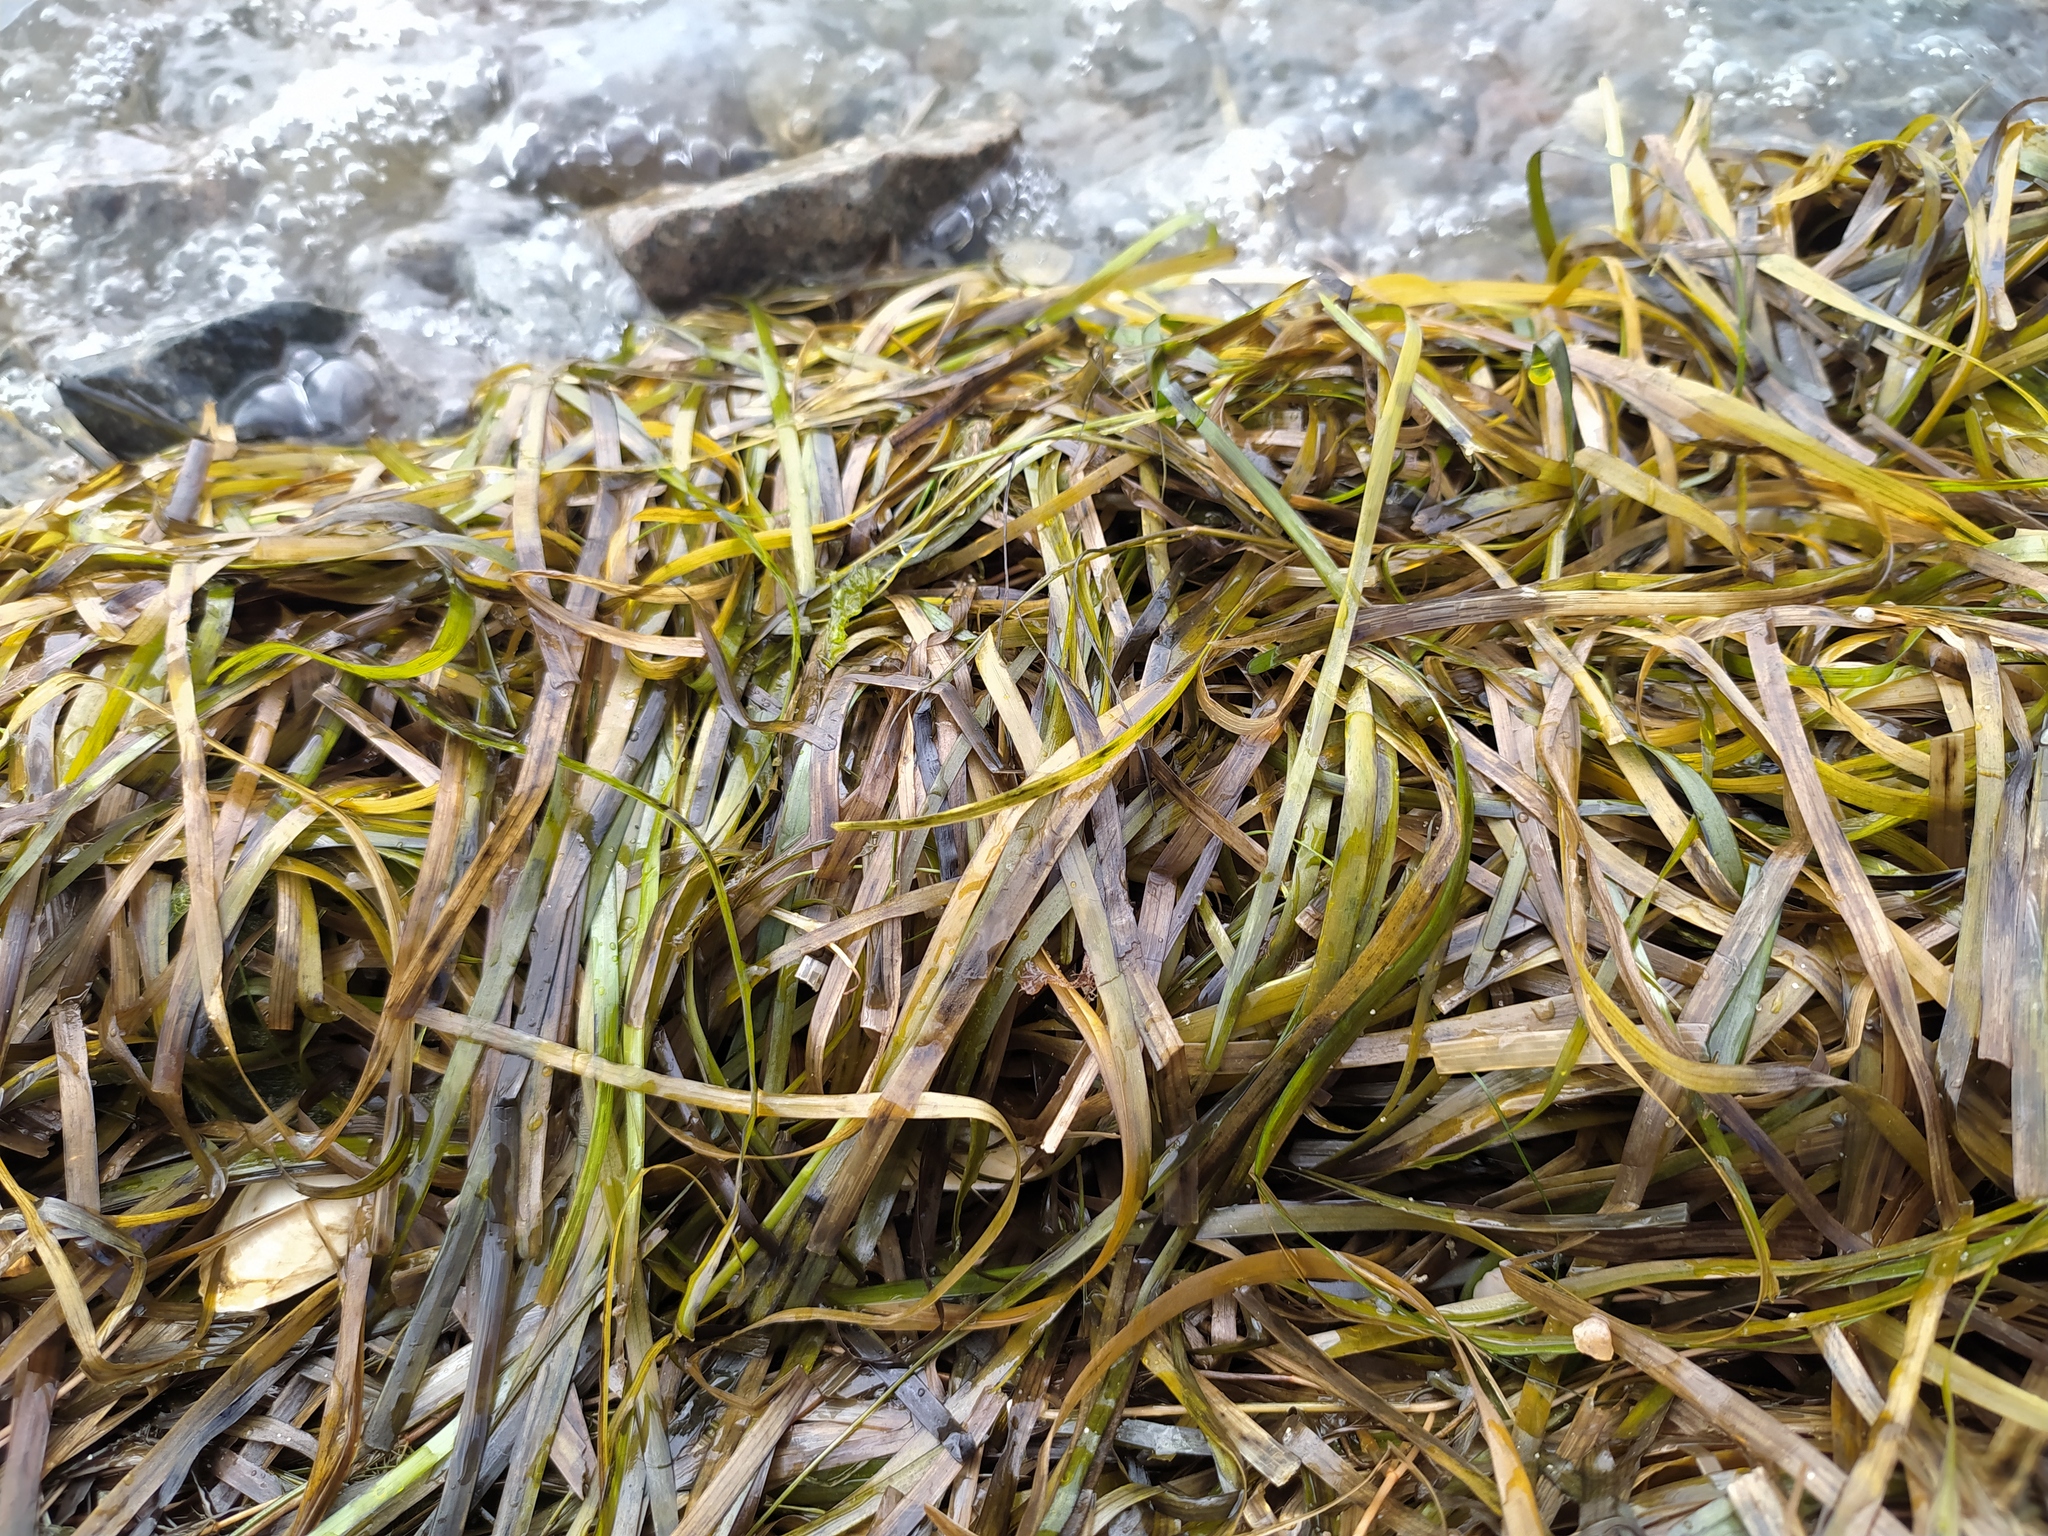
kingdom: Plantae
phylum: Tracheophyta
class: Liliopsida
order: Alismatales
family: Zosteraceae
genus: Zostera
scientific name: Zostera marina
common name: Eelgrass
